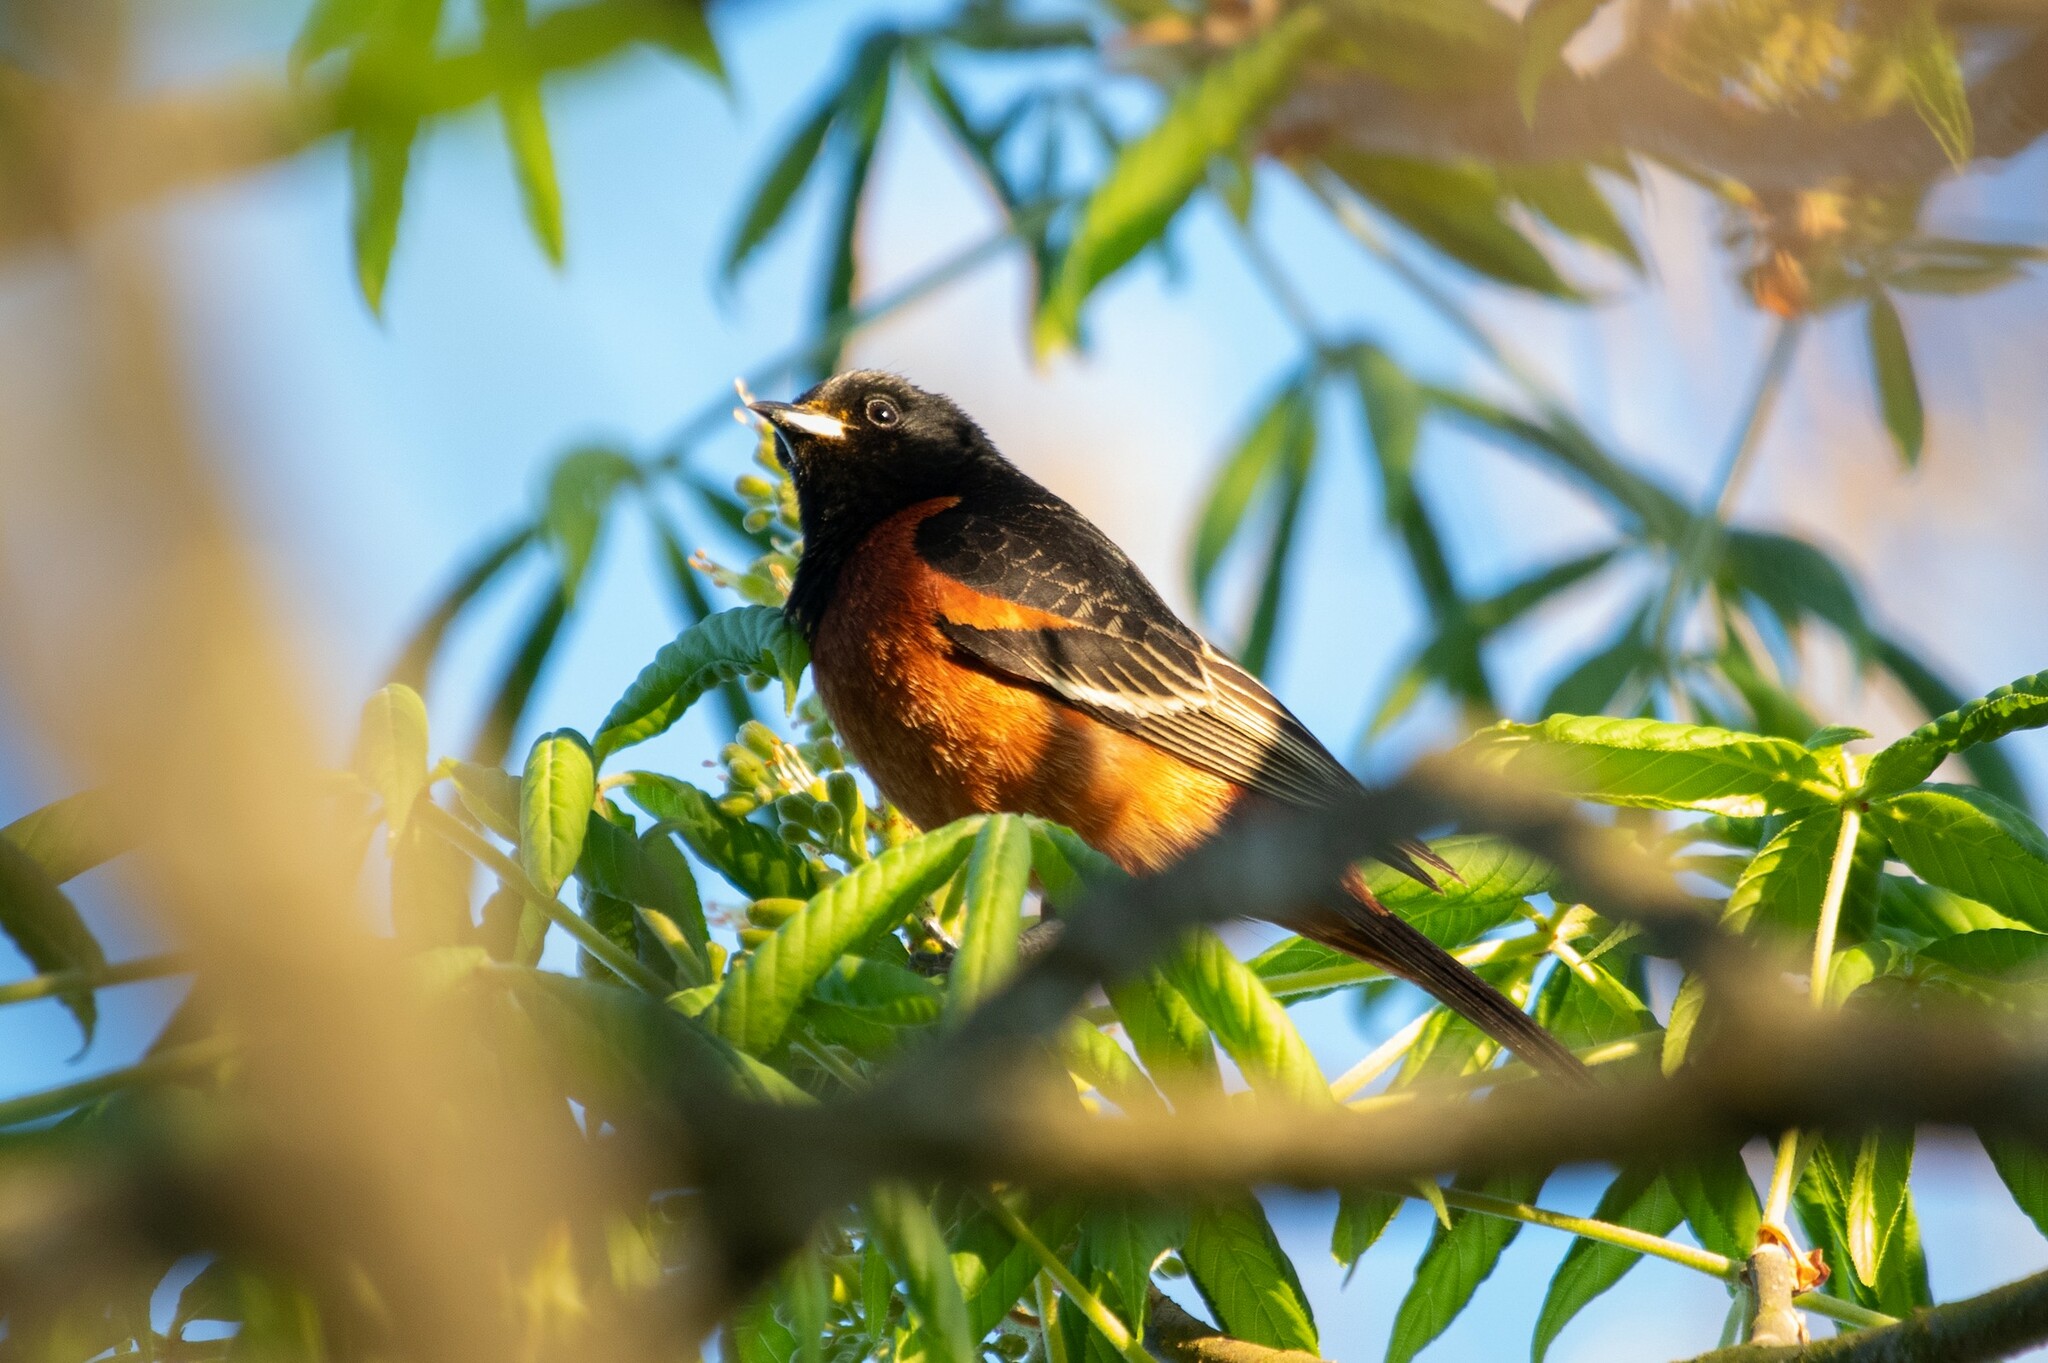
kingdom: Animalia
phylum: Chordata
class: Aves
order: Passeriformes
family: Icteridae
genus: Icterus
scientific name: Icterus spurius
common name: Orchard oriole
